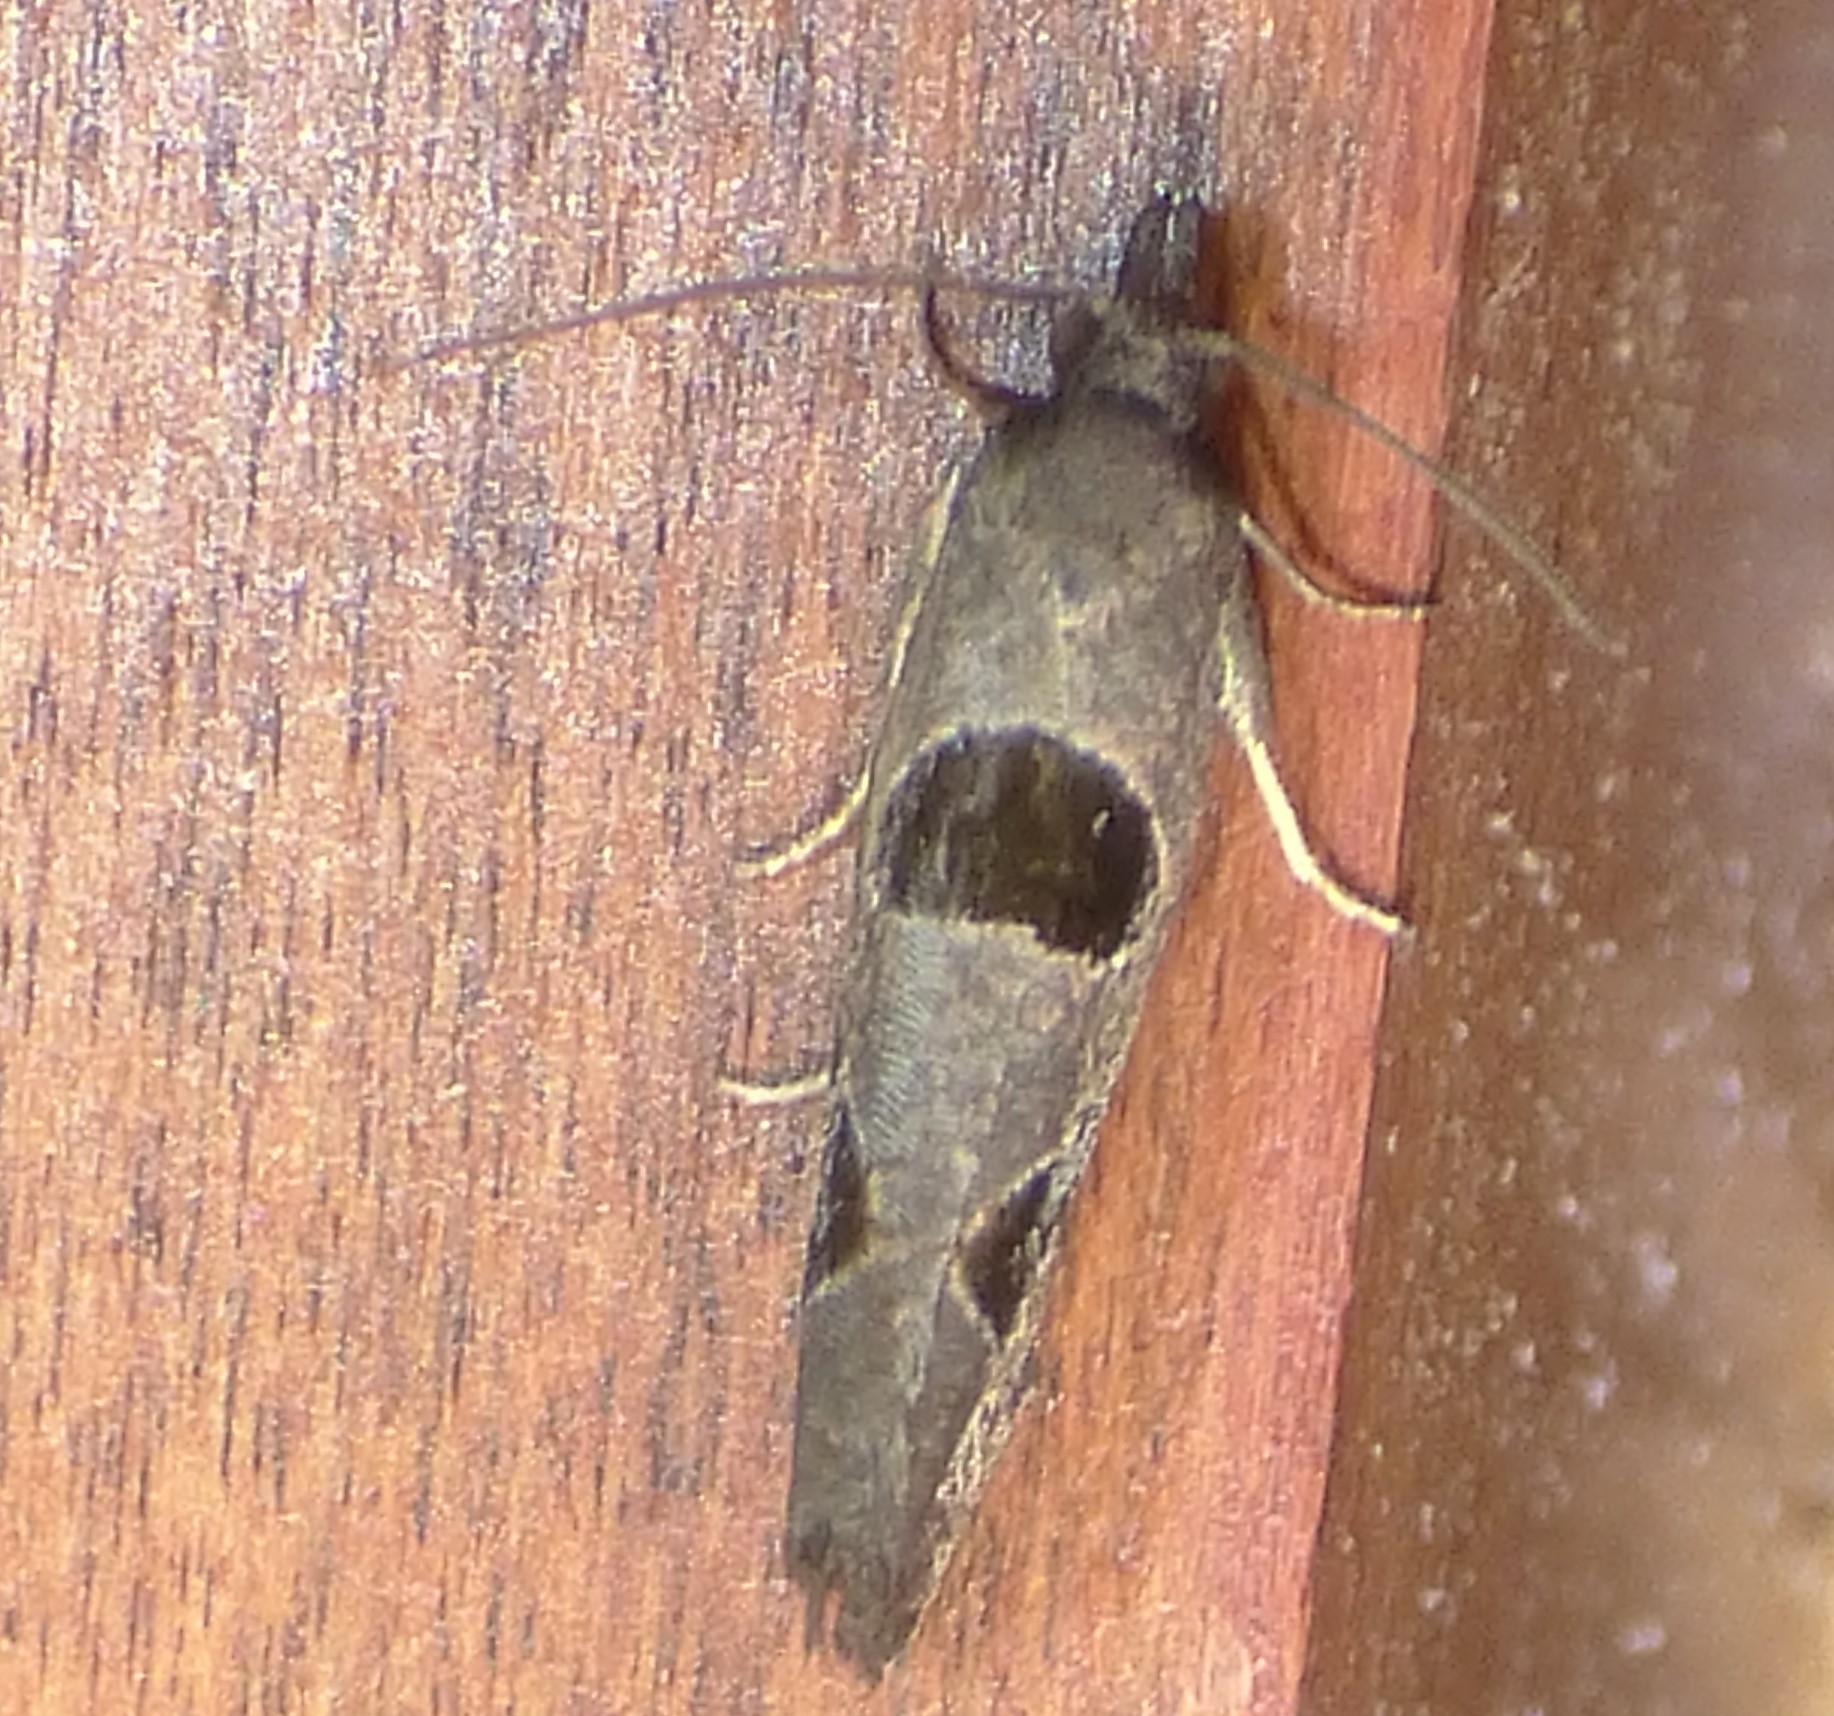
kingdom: Animalia
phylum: Arthropoda
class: Insecta
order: Lepidoptera
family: Tortricidae
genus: Pelochrista
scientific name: Pelochrista dorsisignatana
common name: Triangle-backed pelochrista moth
